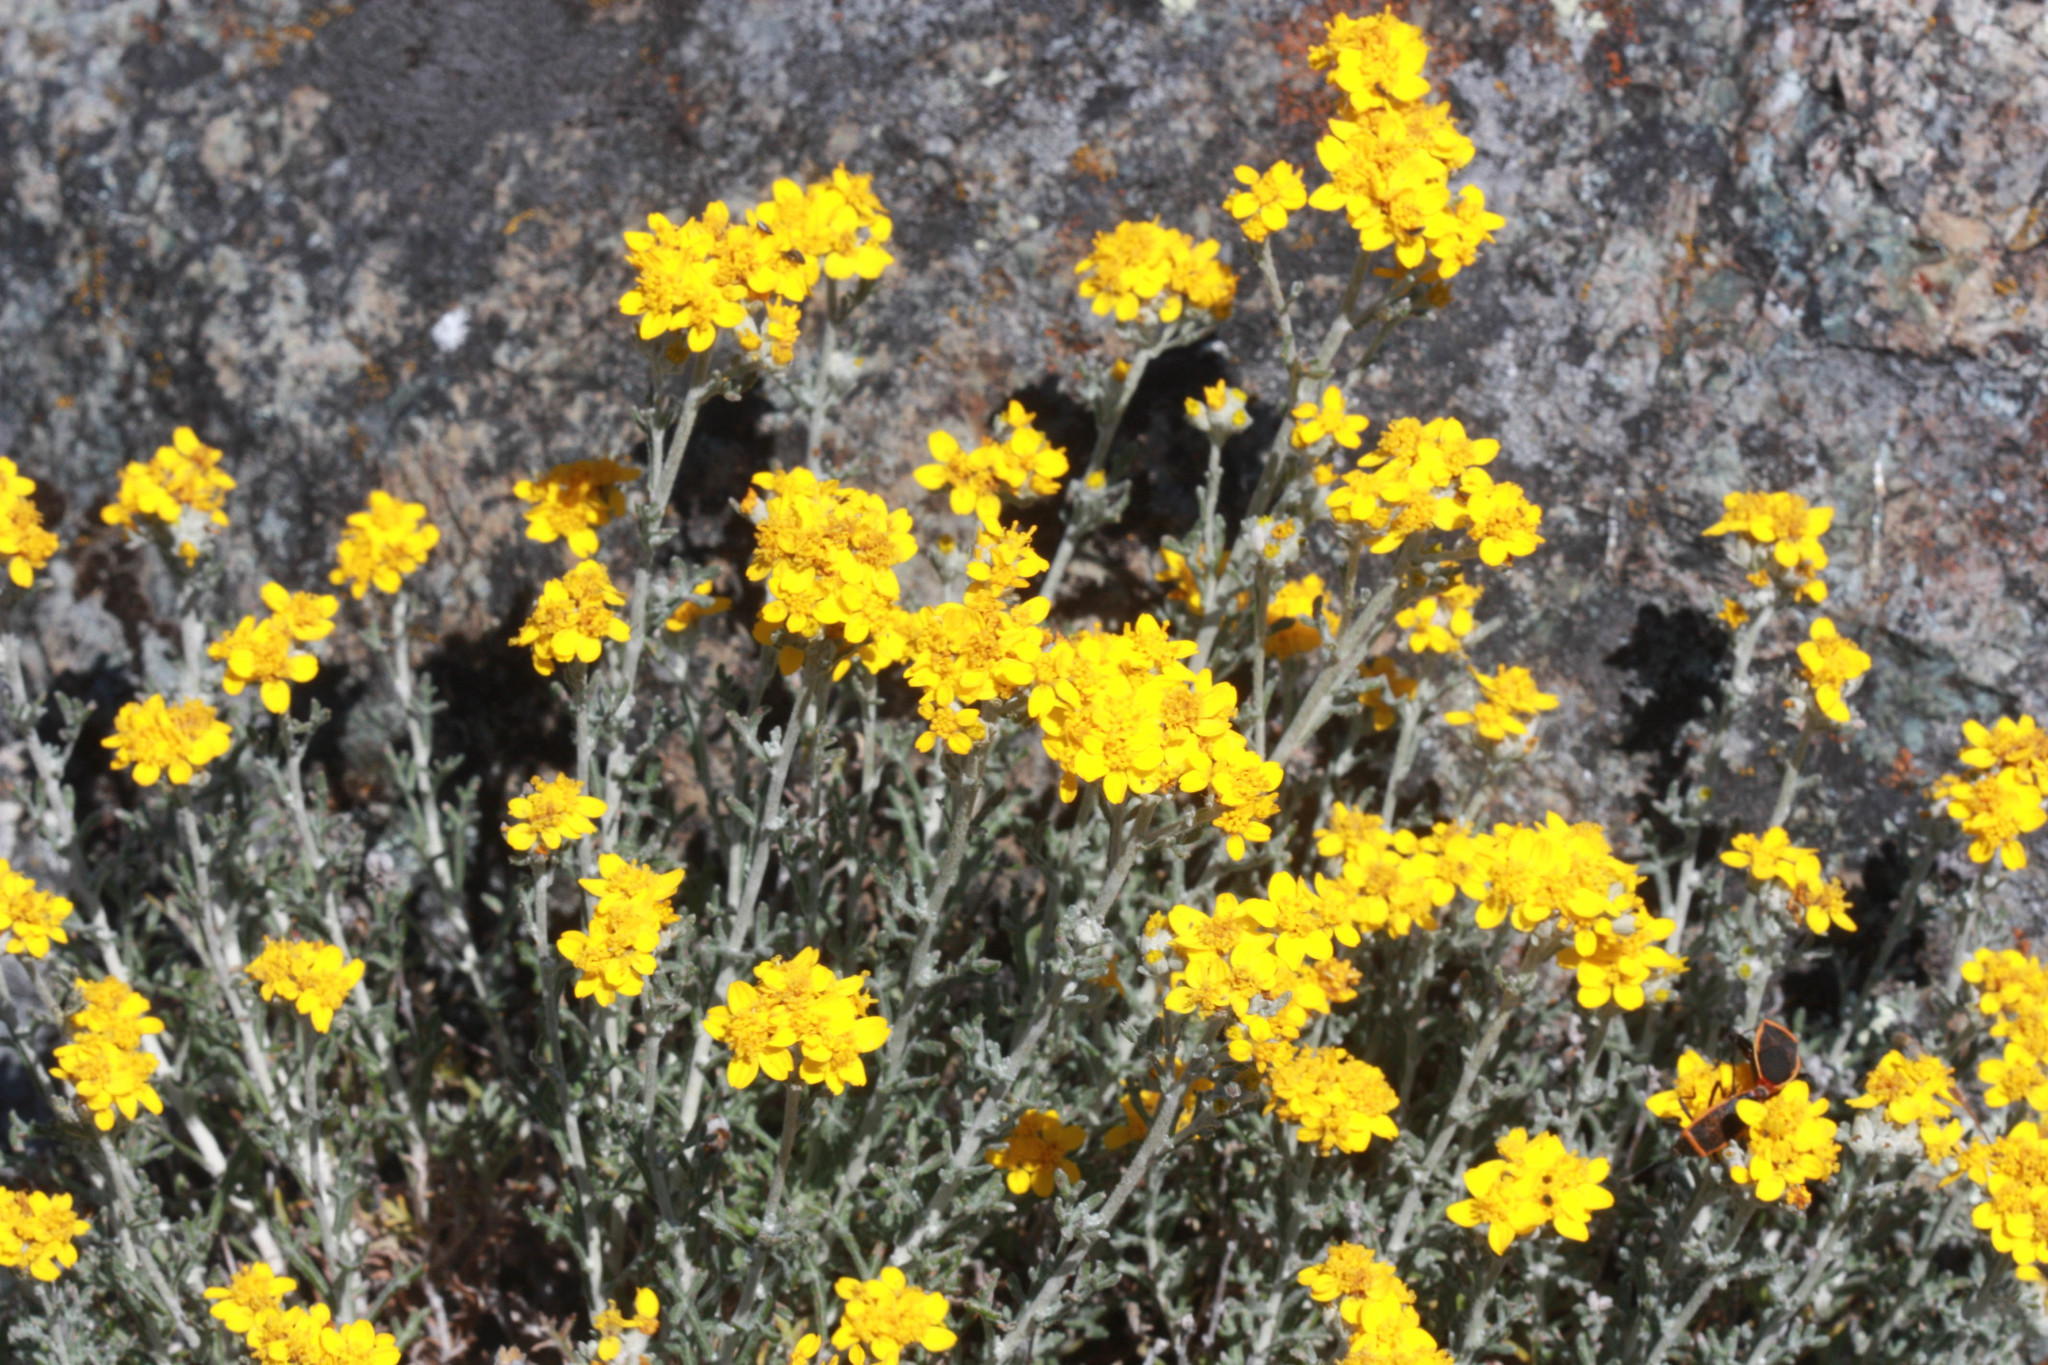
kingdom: Plantae
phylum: Tracheophyta
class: Magnoliopsida
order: Asterales
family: Asteraceae
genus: Eriophyllum
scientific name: Eriophyllum confertiflorum
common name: Golden-yarrow
